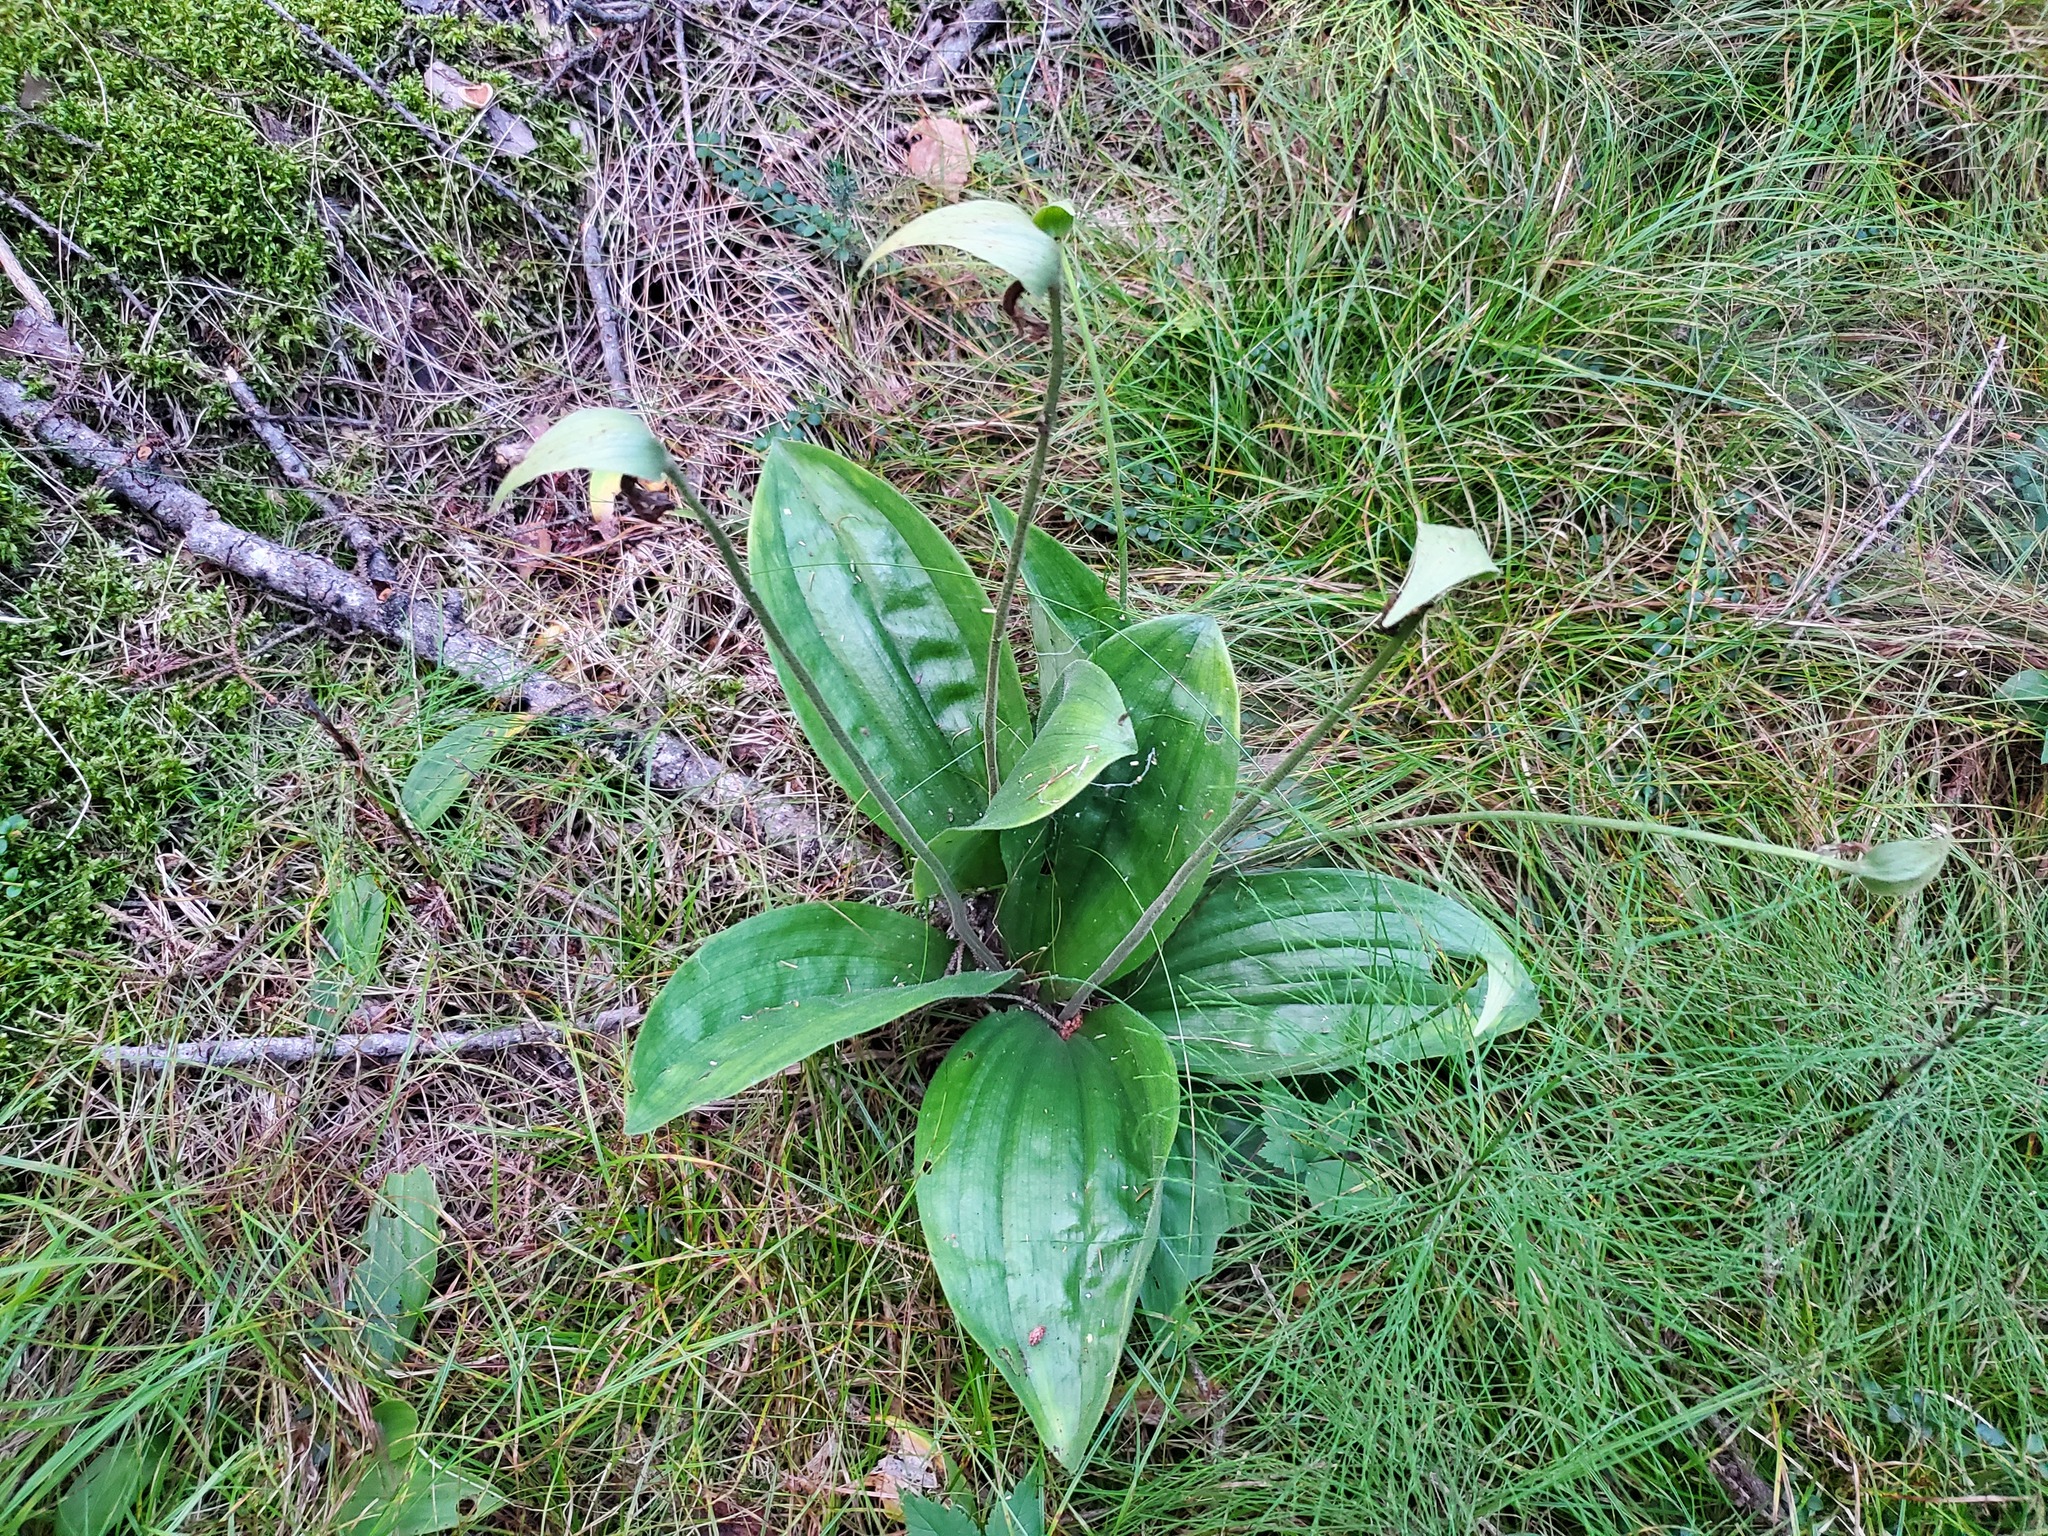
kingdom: Plantae
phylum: Tracheophyta
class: Liliopsida
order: Asparagales
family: Orchidaceae
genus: Cypripedium
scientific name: Cypripedium acaule
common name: Pink lady's-slipper
